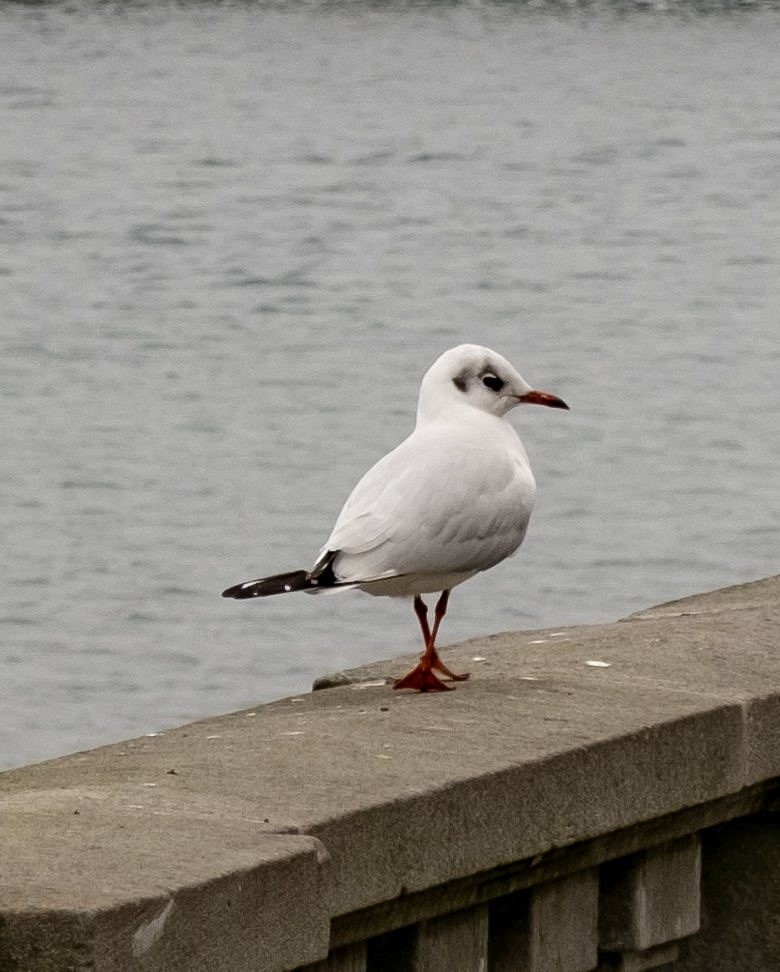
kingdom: Animalia
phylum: Chordata
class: Aves
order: Charadriiformes
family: Laridae
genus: Chroicocephalus
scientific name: Chroicocephalus ridibundus
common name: Black-headed gull
